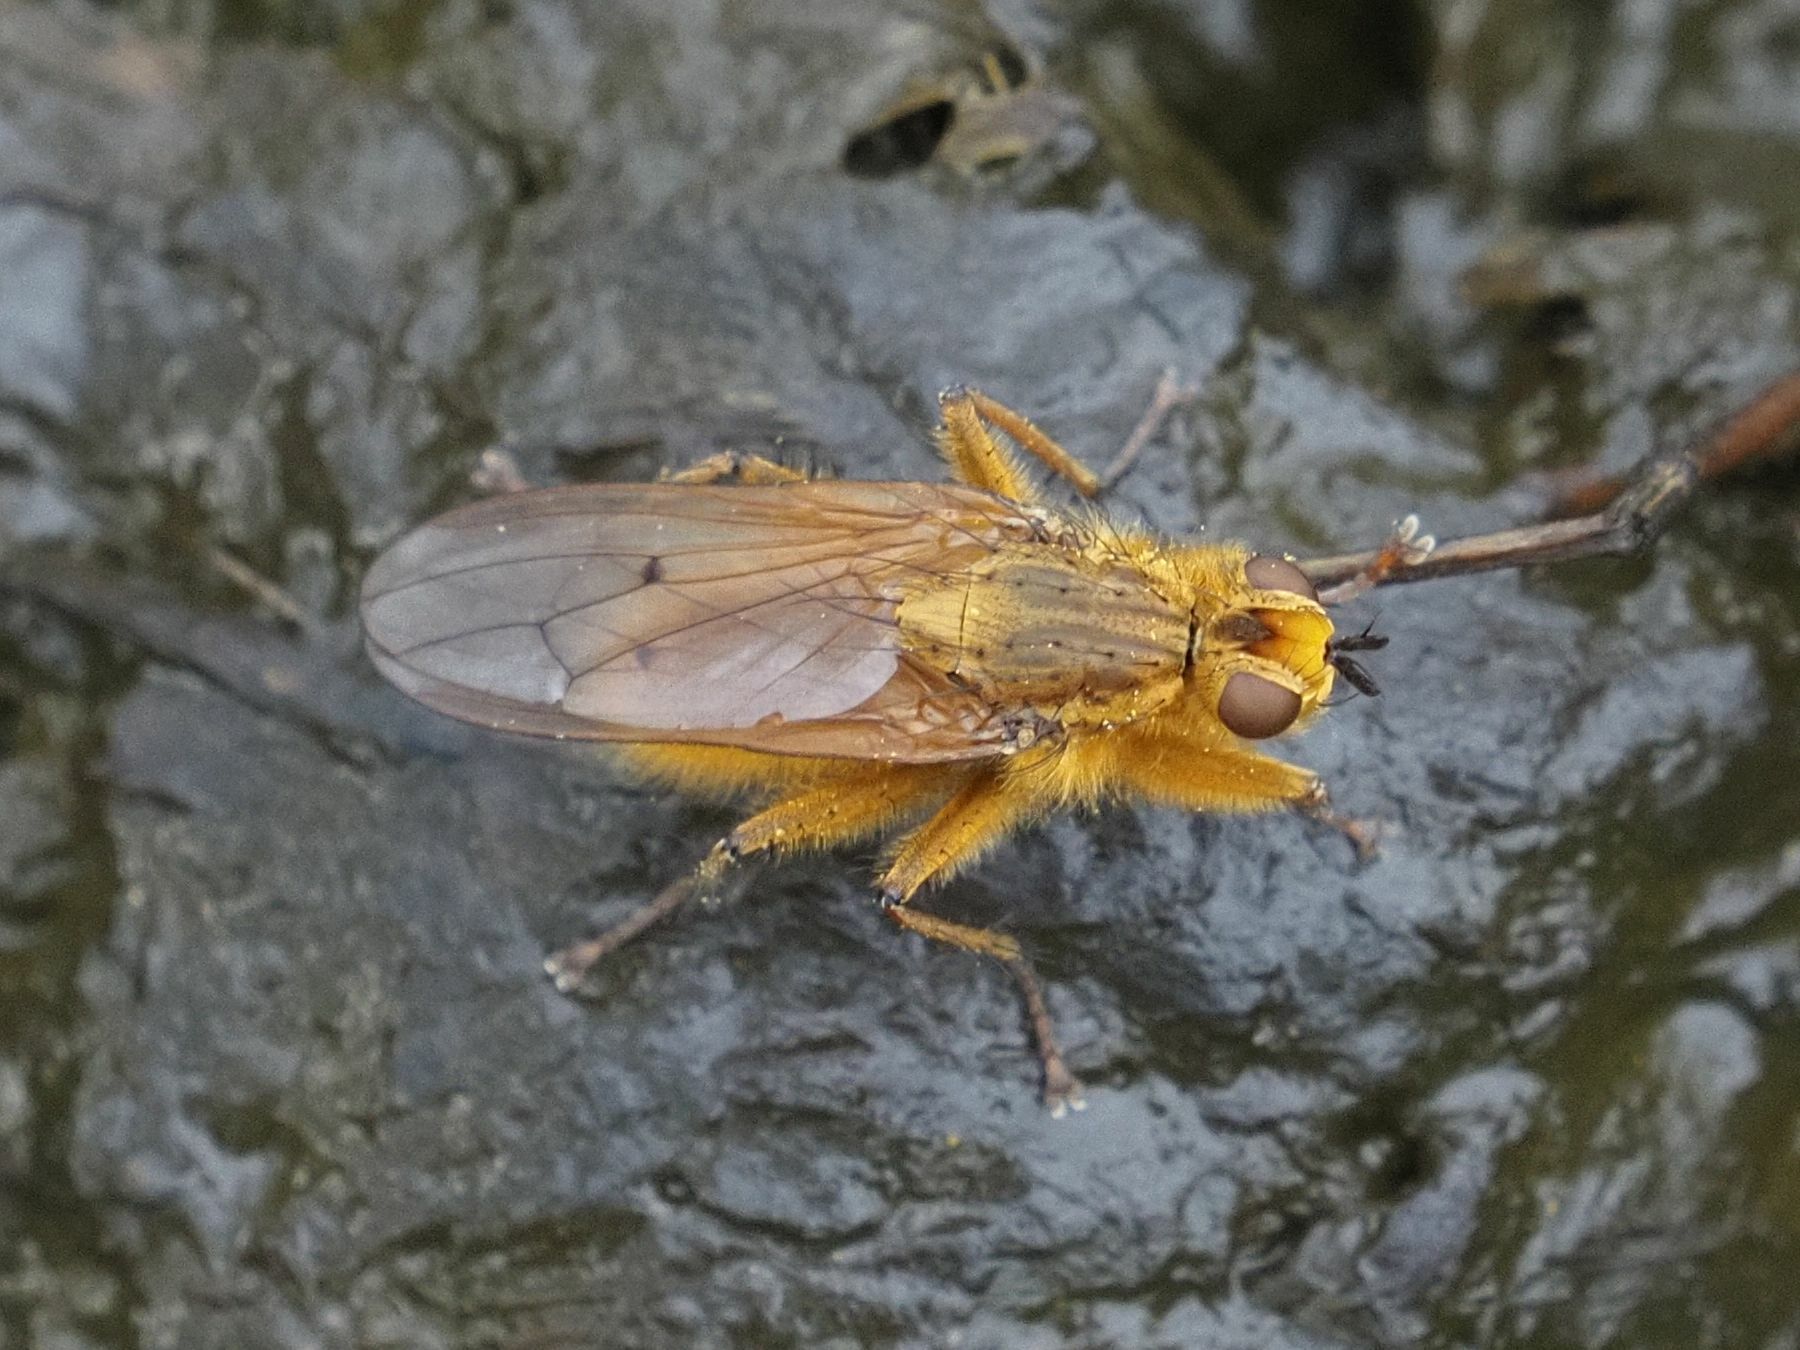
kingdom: Animalia
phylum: Arthropoda
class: Insecta
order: Diptera
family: Scathophagidae
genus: Scathophaga
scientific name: Scathophaga stercoraria
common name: Yellow dung fly
